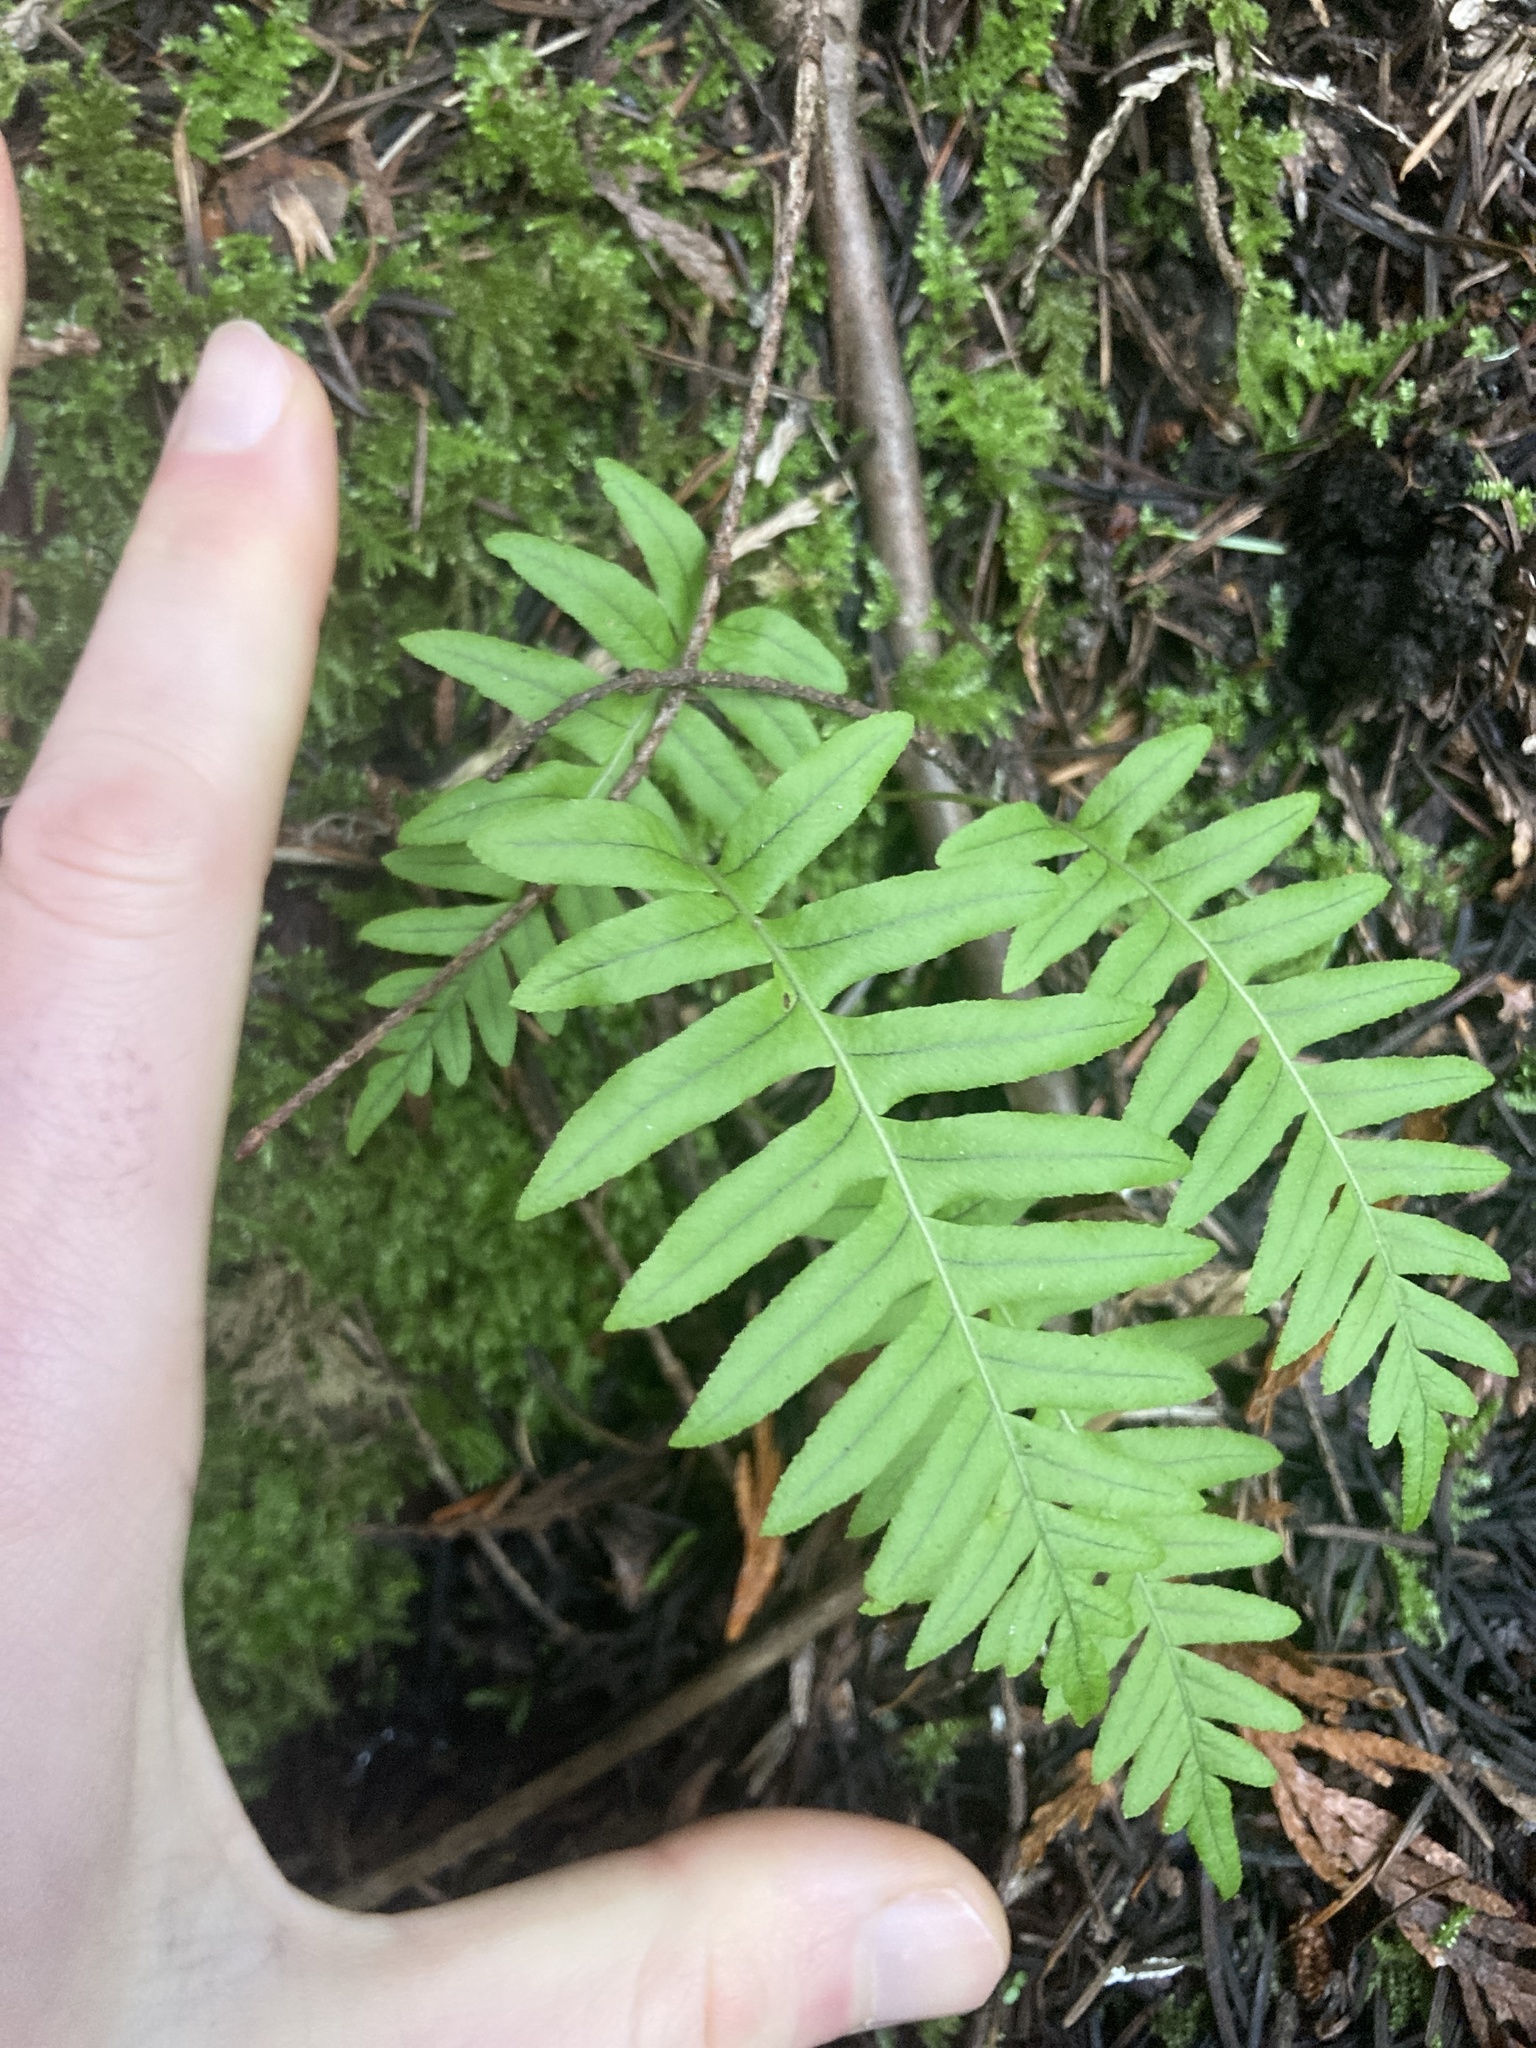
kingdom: Plantae
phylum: Tracheophyta
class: Polypodiopsida
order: Polypodiales
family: Polypodiaceae
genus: Polypodium
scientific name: Polypodium glycyrrhiza
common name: Licorice fern
